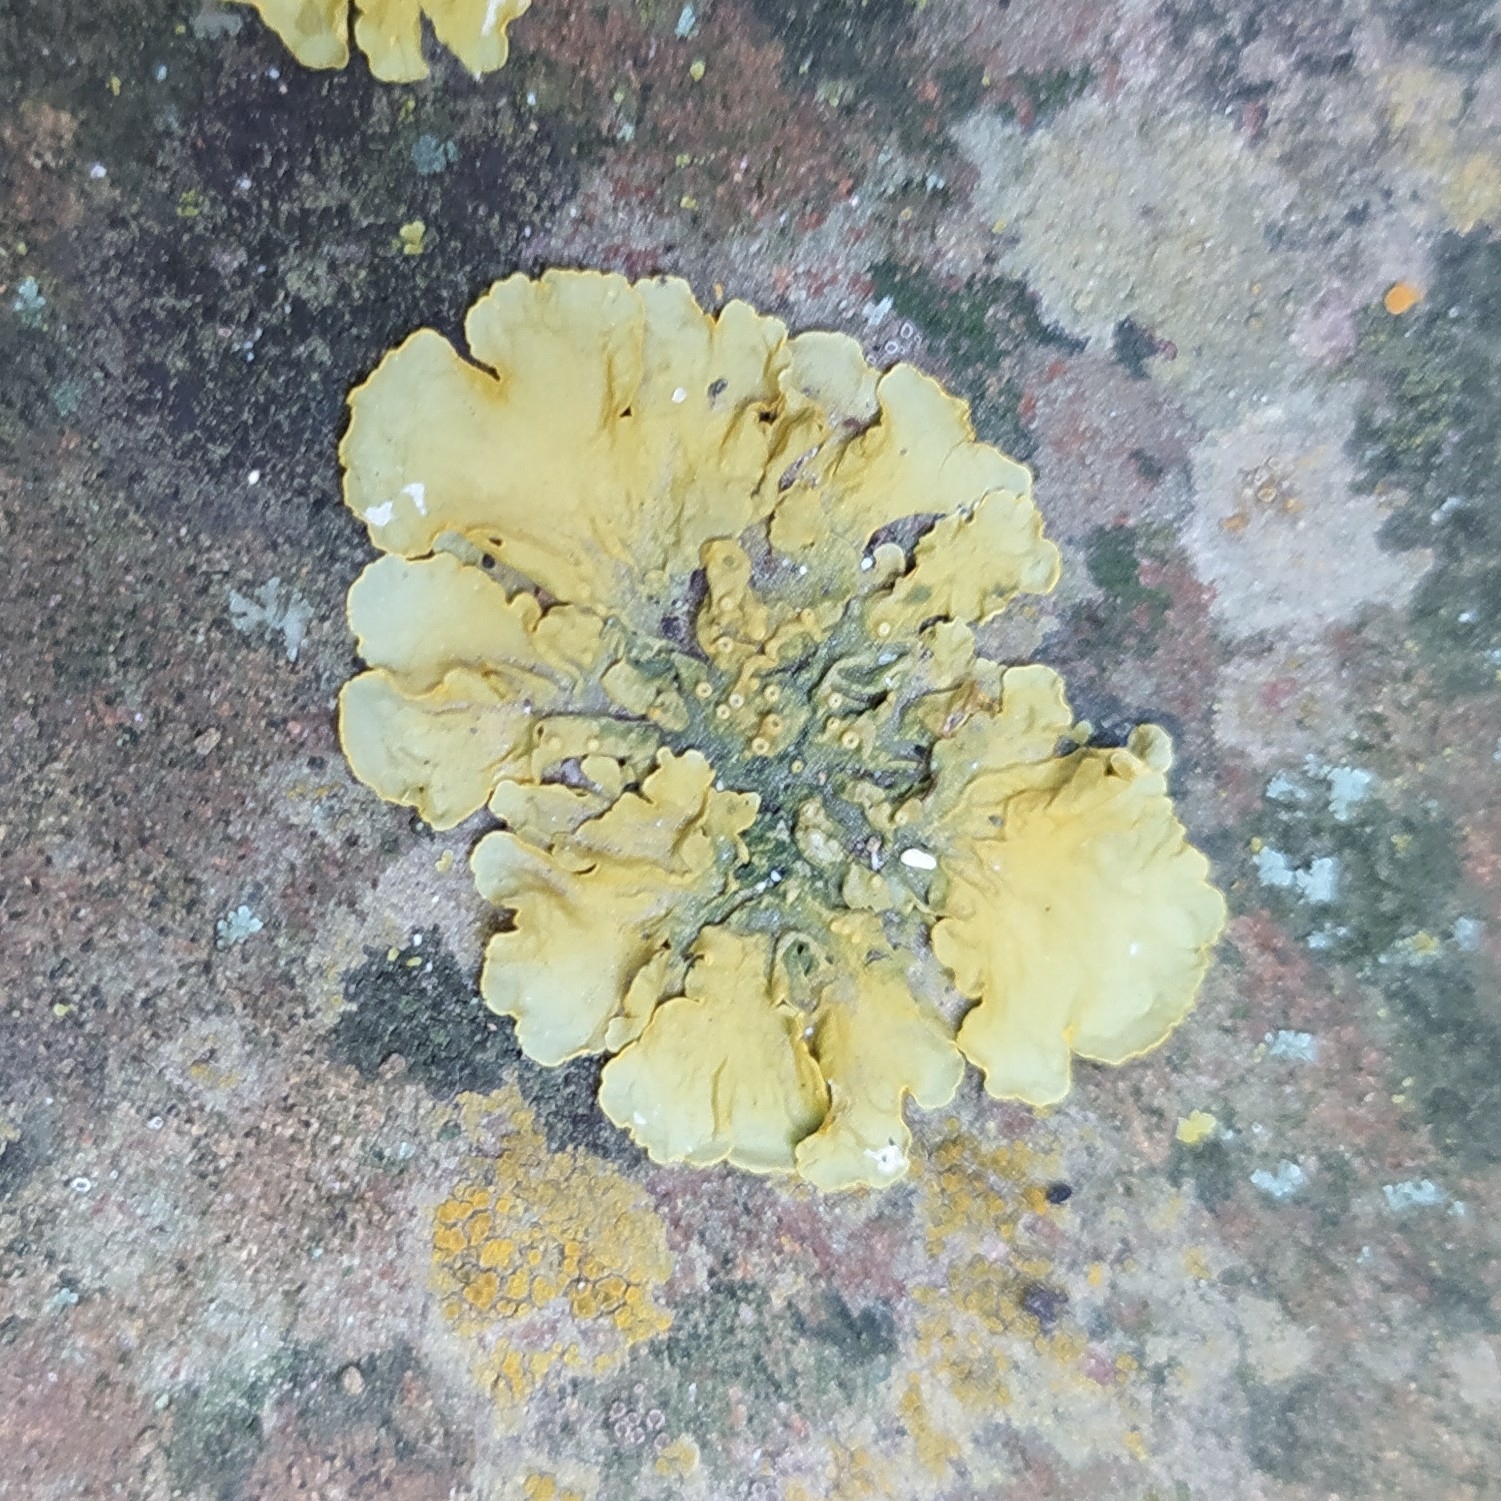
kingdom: Fungi
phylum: Ascomycota
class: Lecanoromycetes
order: Teloschistales
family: Teloschistaceae
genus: Xanthoria
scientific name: Xanthoria parietina
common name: Common orange lichen
